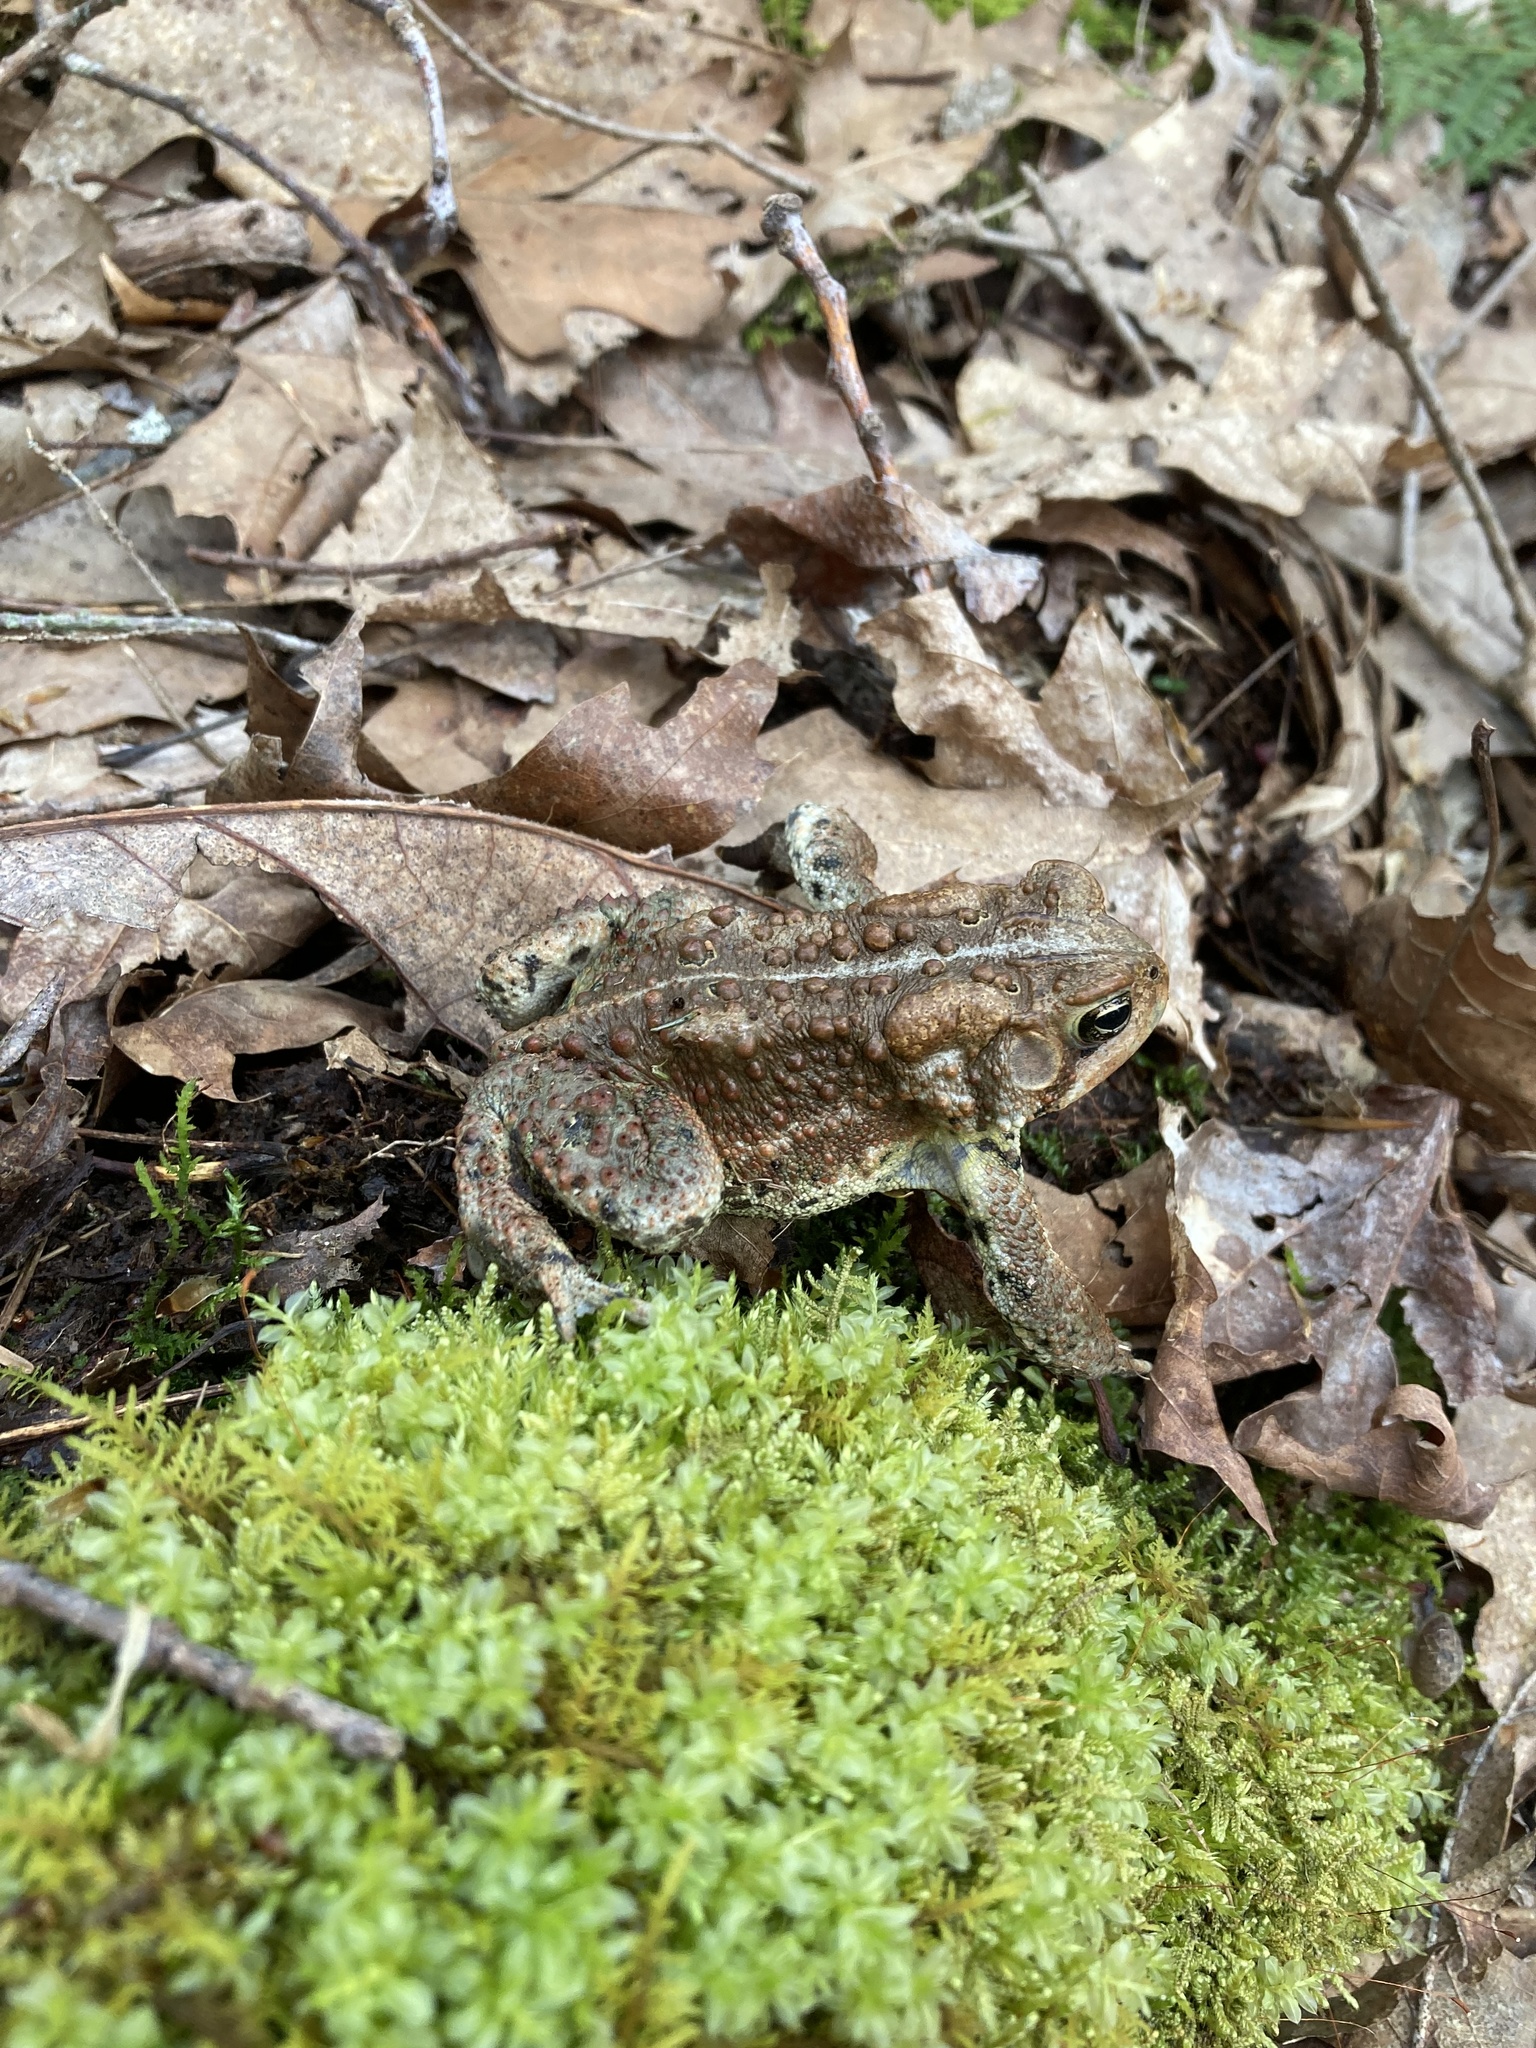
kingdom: Animalia
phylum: Chordata
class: Amphibia
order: Anura
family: Bufonidae
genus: Anaxyrus
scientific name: Anaxyrus americanus
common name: American toad
